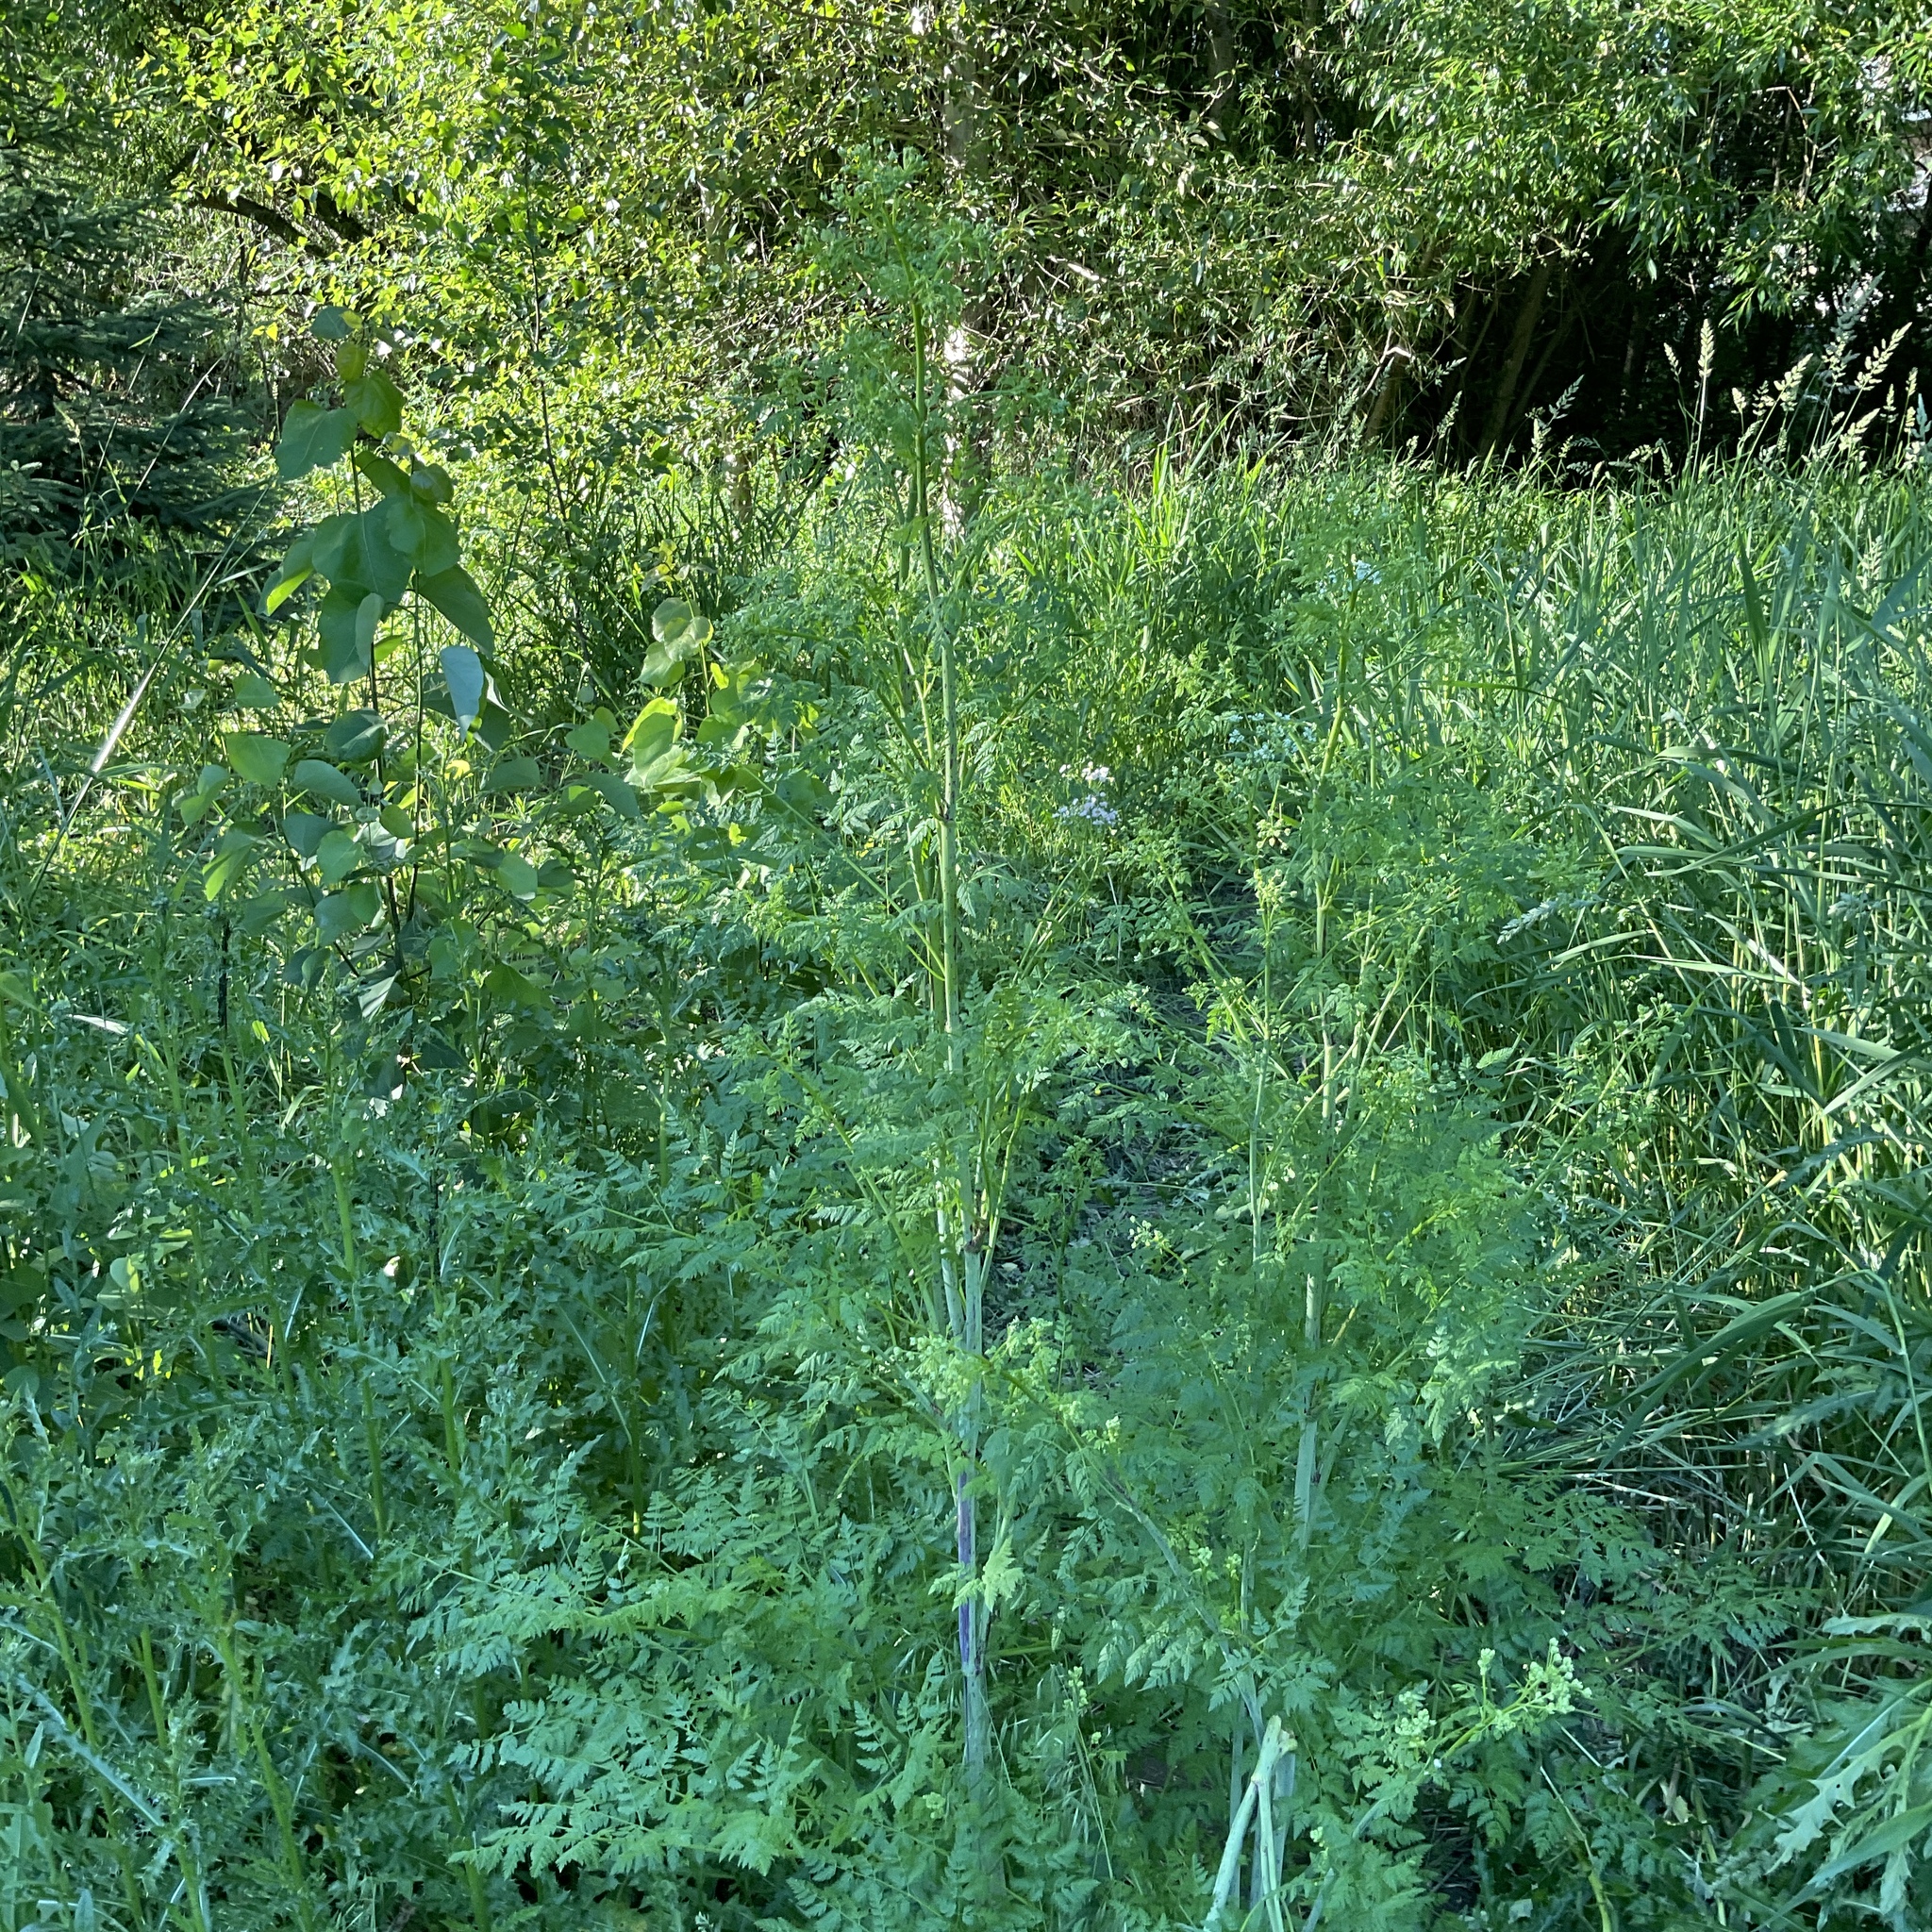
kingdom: Plantae
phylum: Tracheophyta
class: Magnoliopsida
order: Apiales
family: Apiaceae
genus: Conium
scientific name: Conium maculatum
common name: Hemlock
